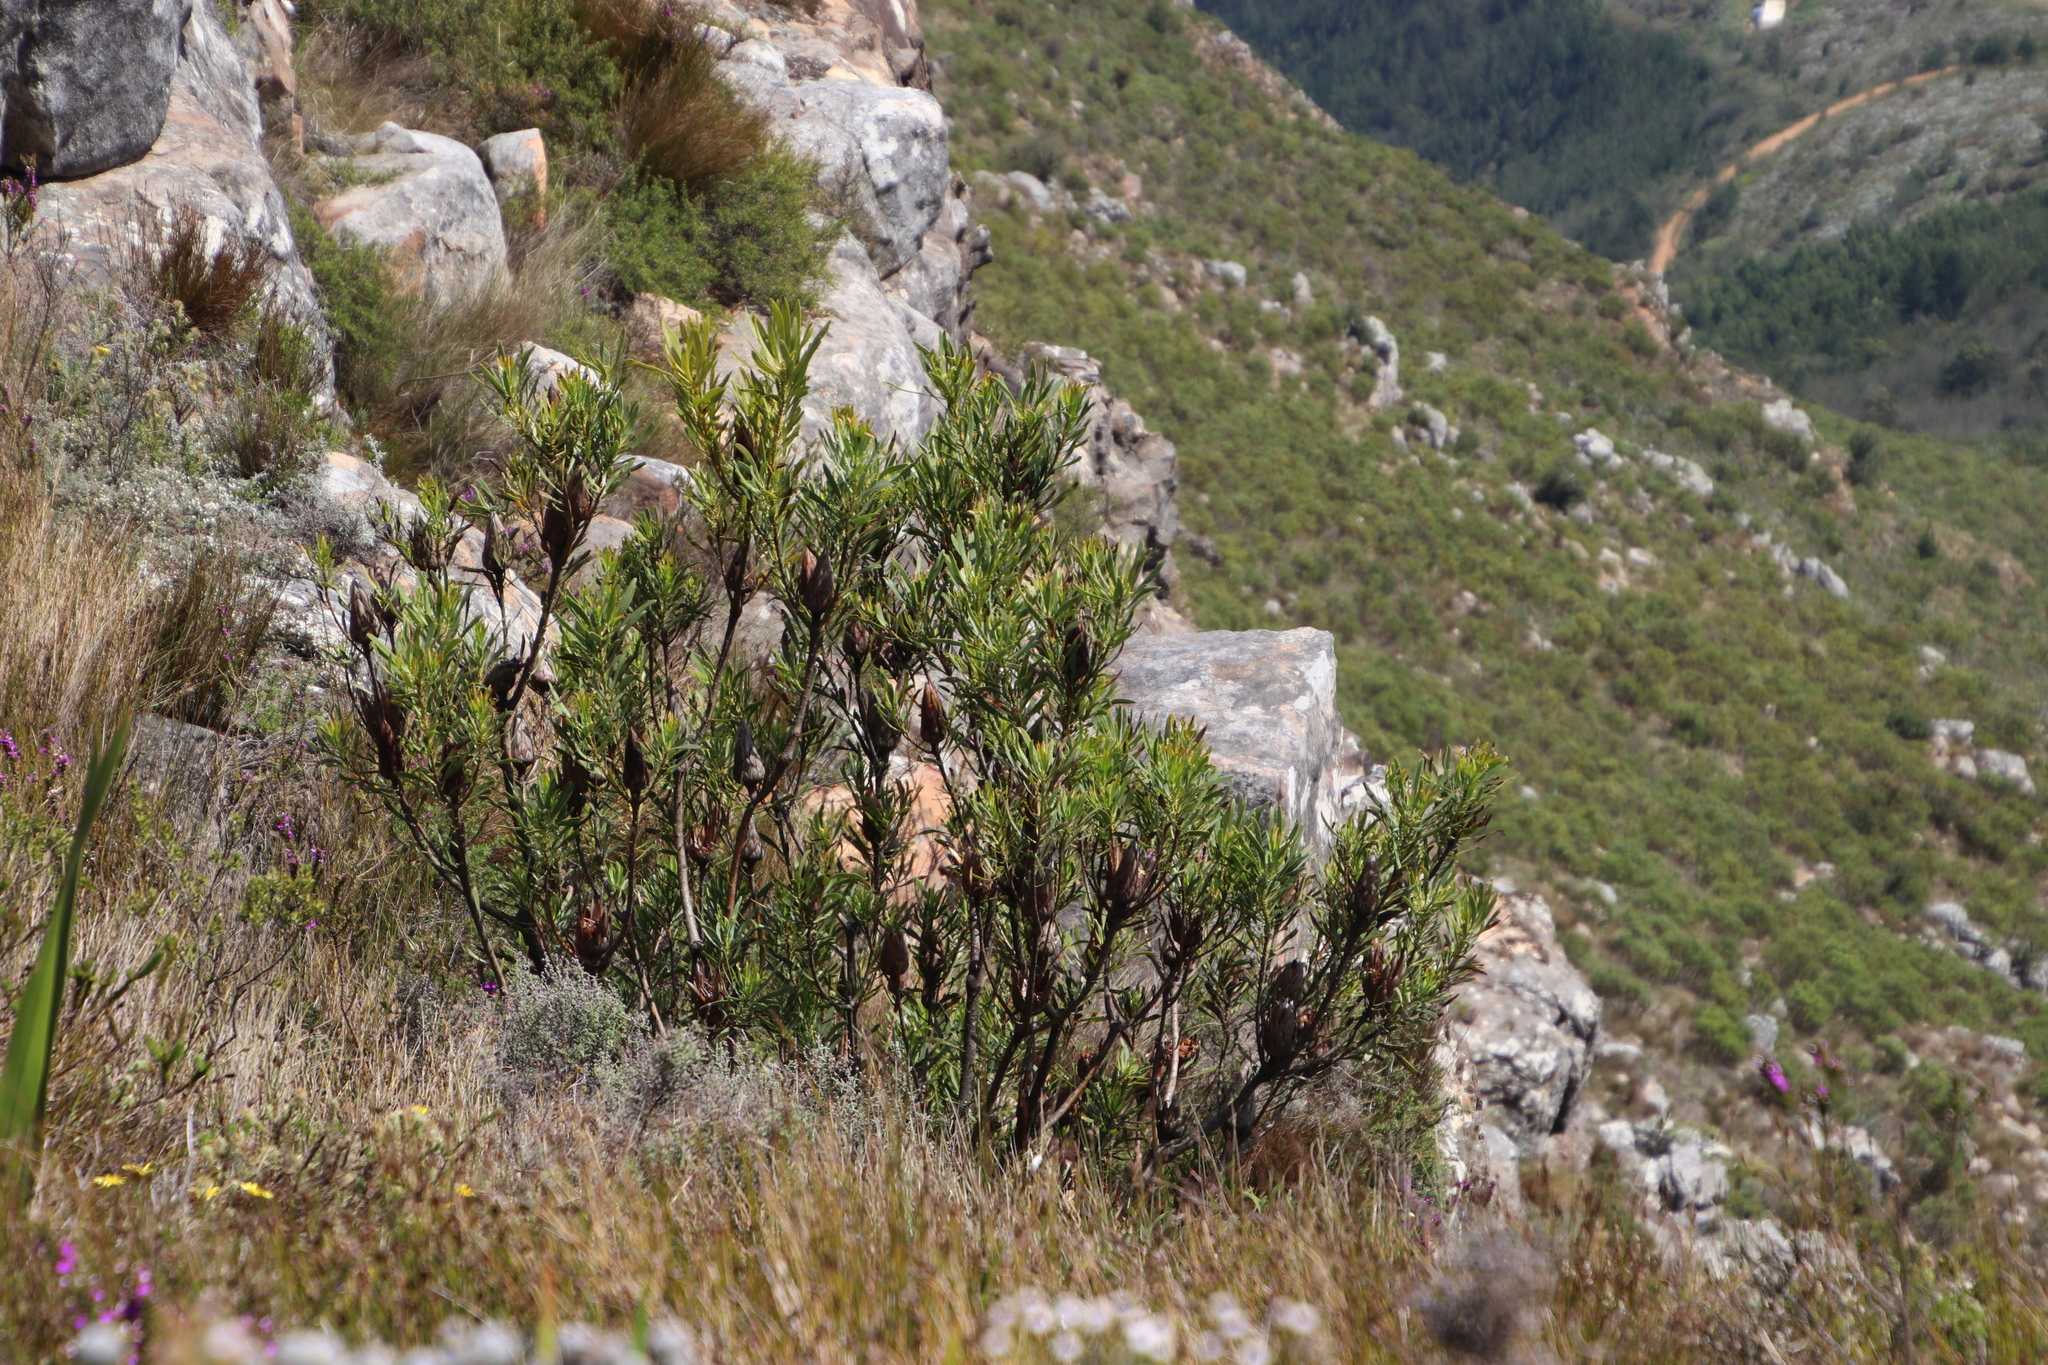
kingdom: Plantae
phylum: Tracheophyta
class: Magnoliopsida
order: Proteales
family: Proteaceae
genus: Protea
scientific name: Protea repens
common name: Sugarbush
